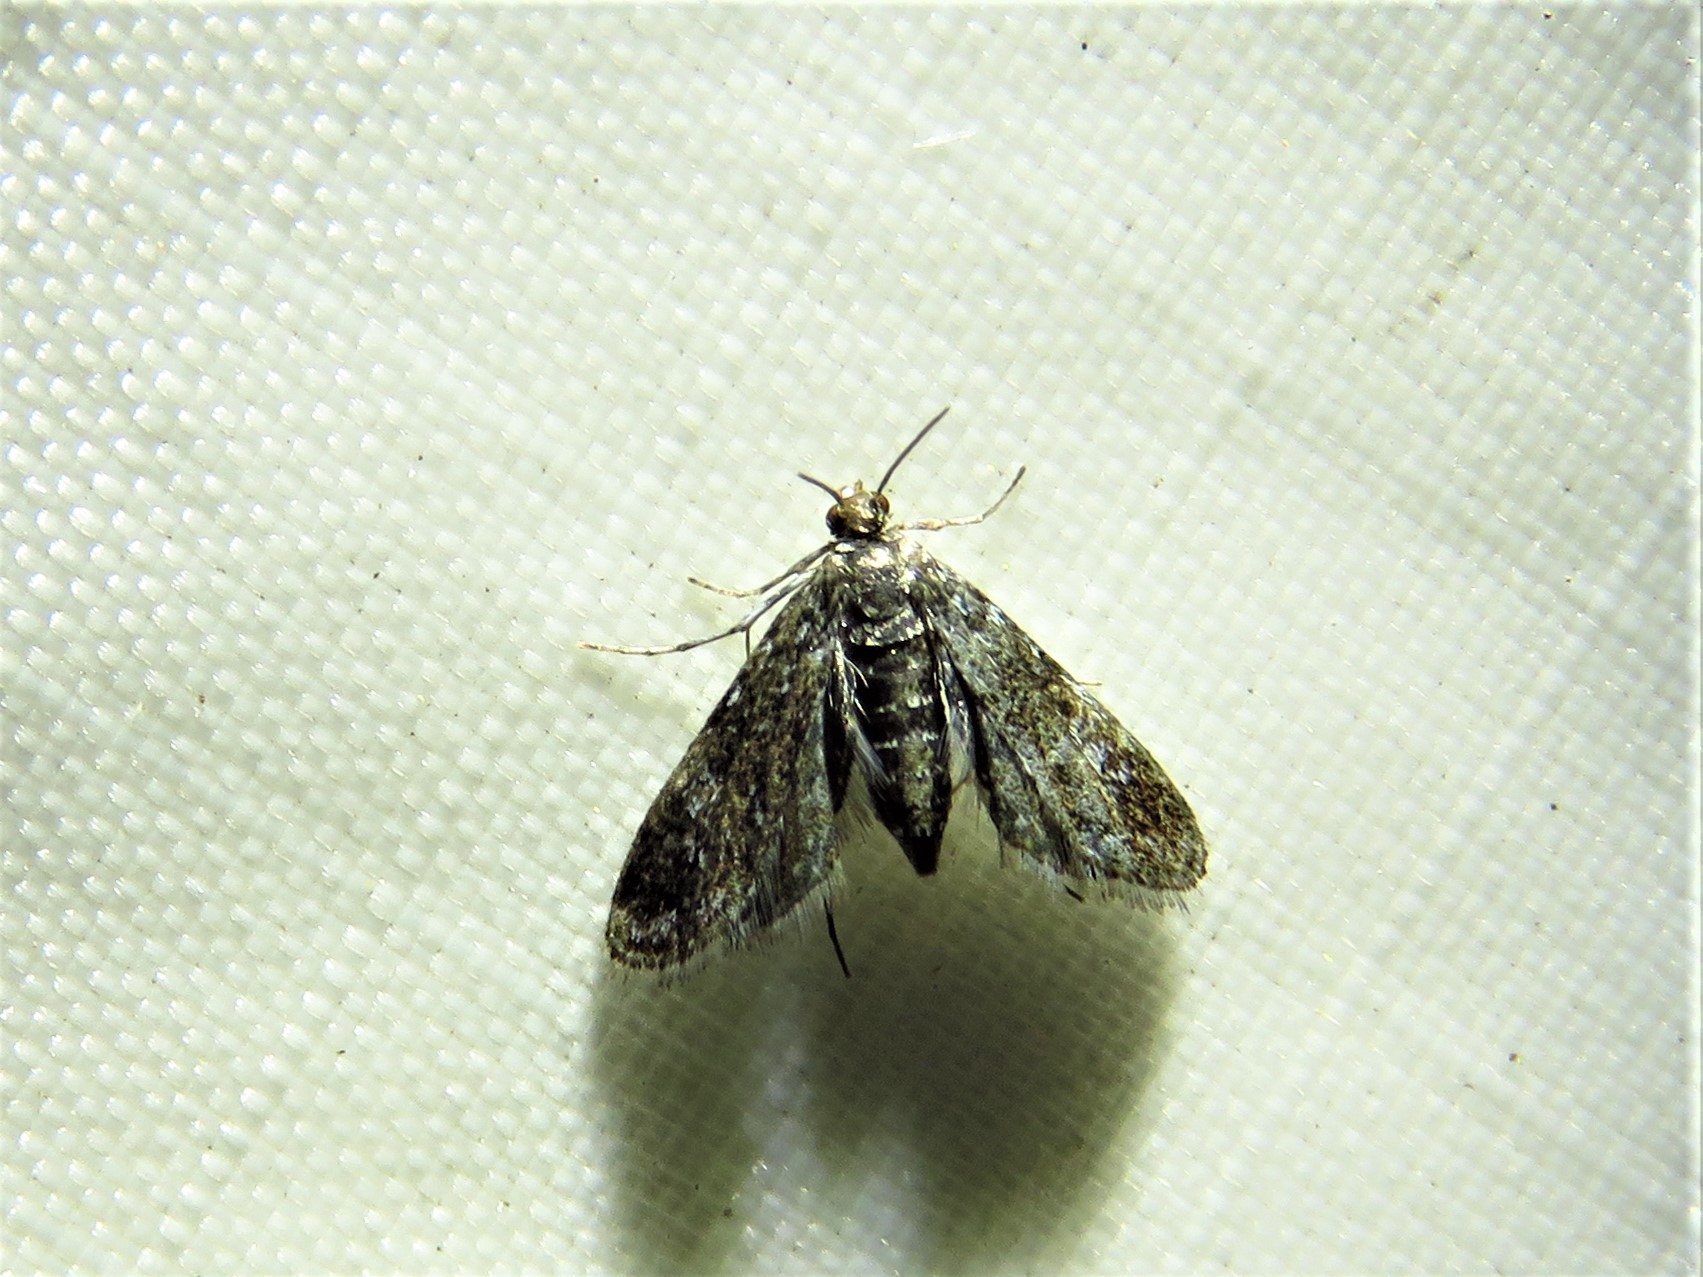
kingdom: Animalia
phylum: Arthropoda
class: Insecta
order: Lepidoptera
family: Crambidae
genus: Elophila
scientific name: Elophila tinealis
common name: Black duckweed moth
